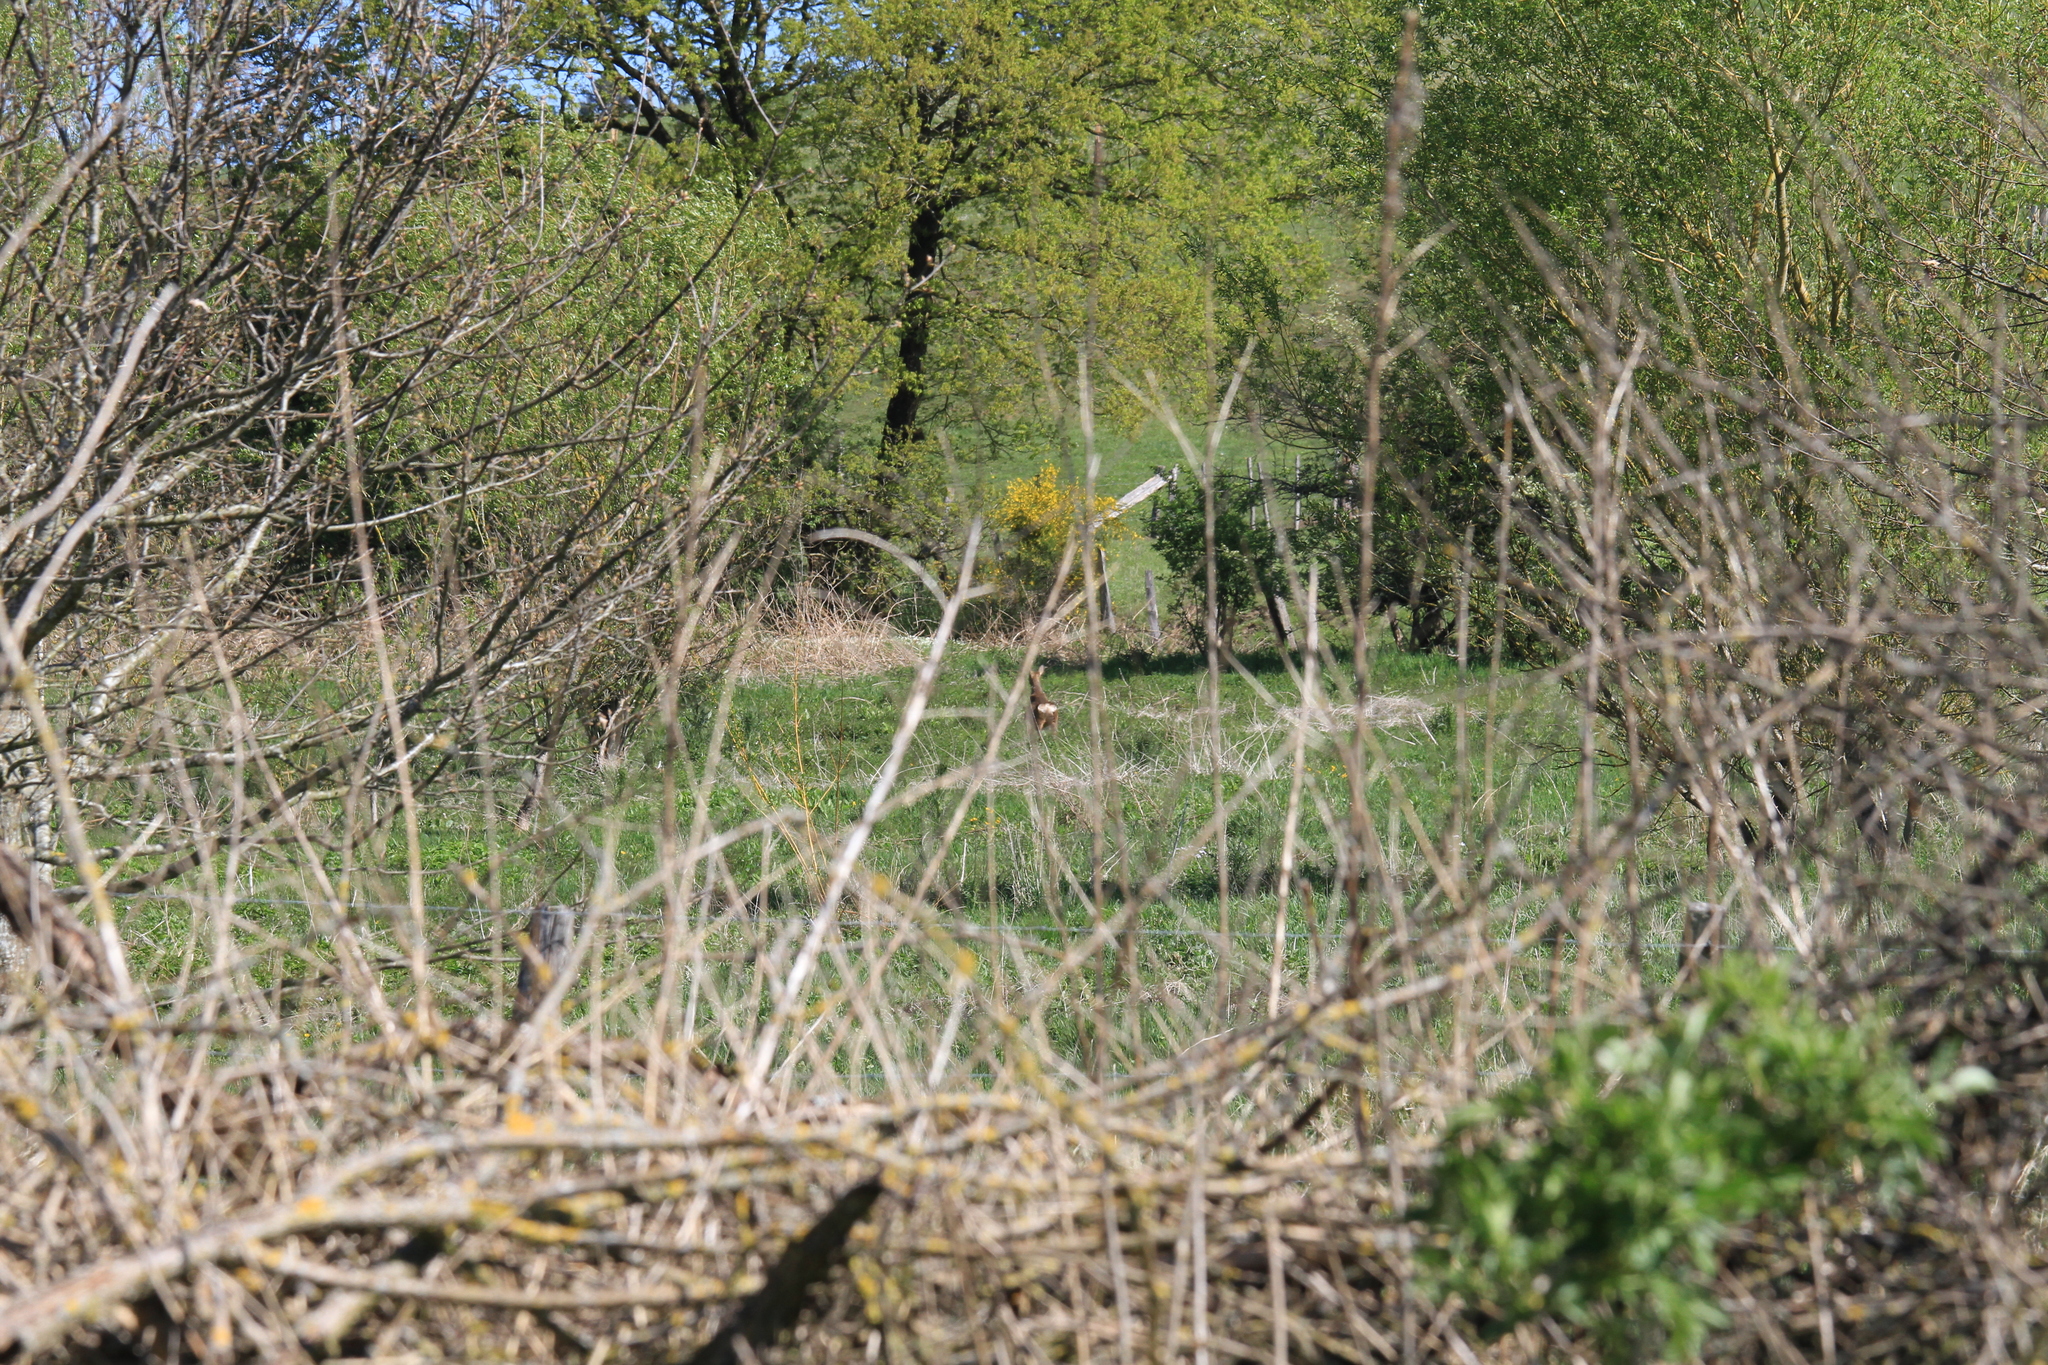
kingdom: Animalia
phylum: Chordata
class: Mammalia
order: Artiodactyla
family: Cervidae
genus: Capreolus
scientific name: Capreolus capreolus
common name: Western roe deer
